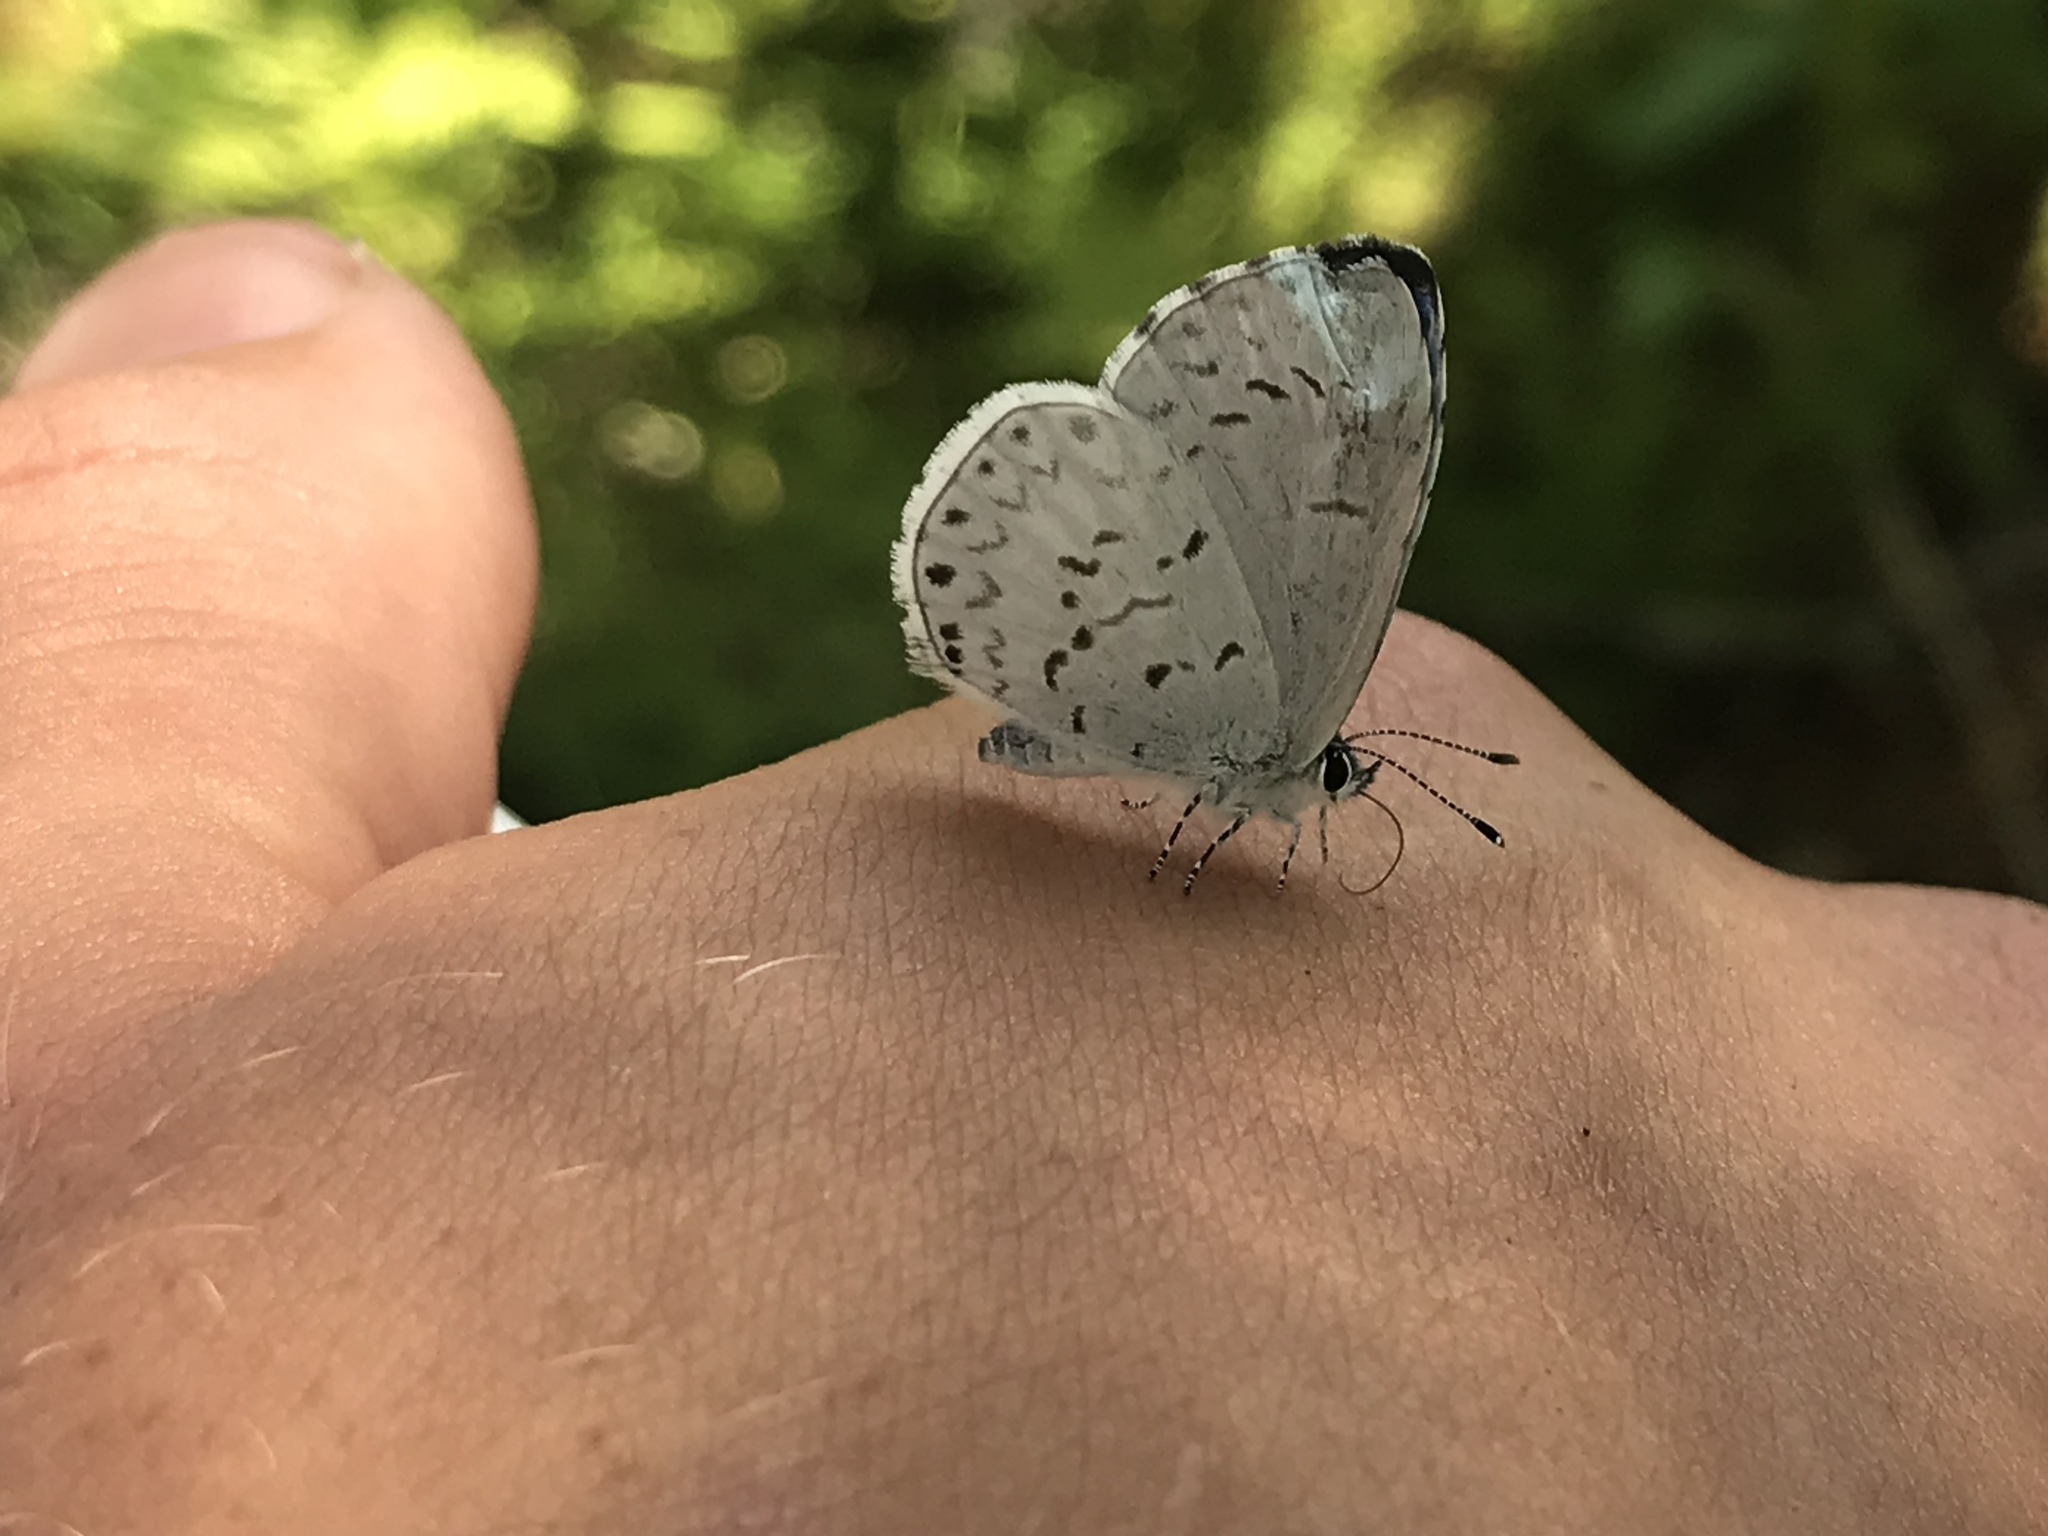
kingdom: Animalia
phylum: Arthropoda
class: Insecta
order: Lepidoptera
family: Lycaenidae
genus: Cyaniris
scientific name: Cyaniris neglecta
